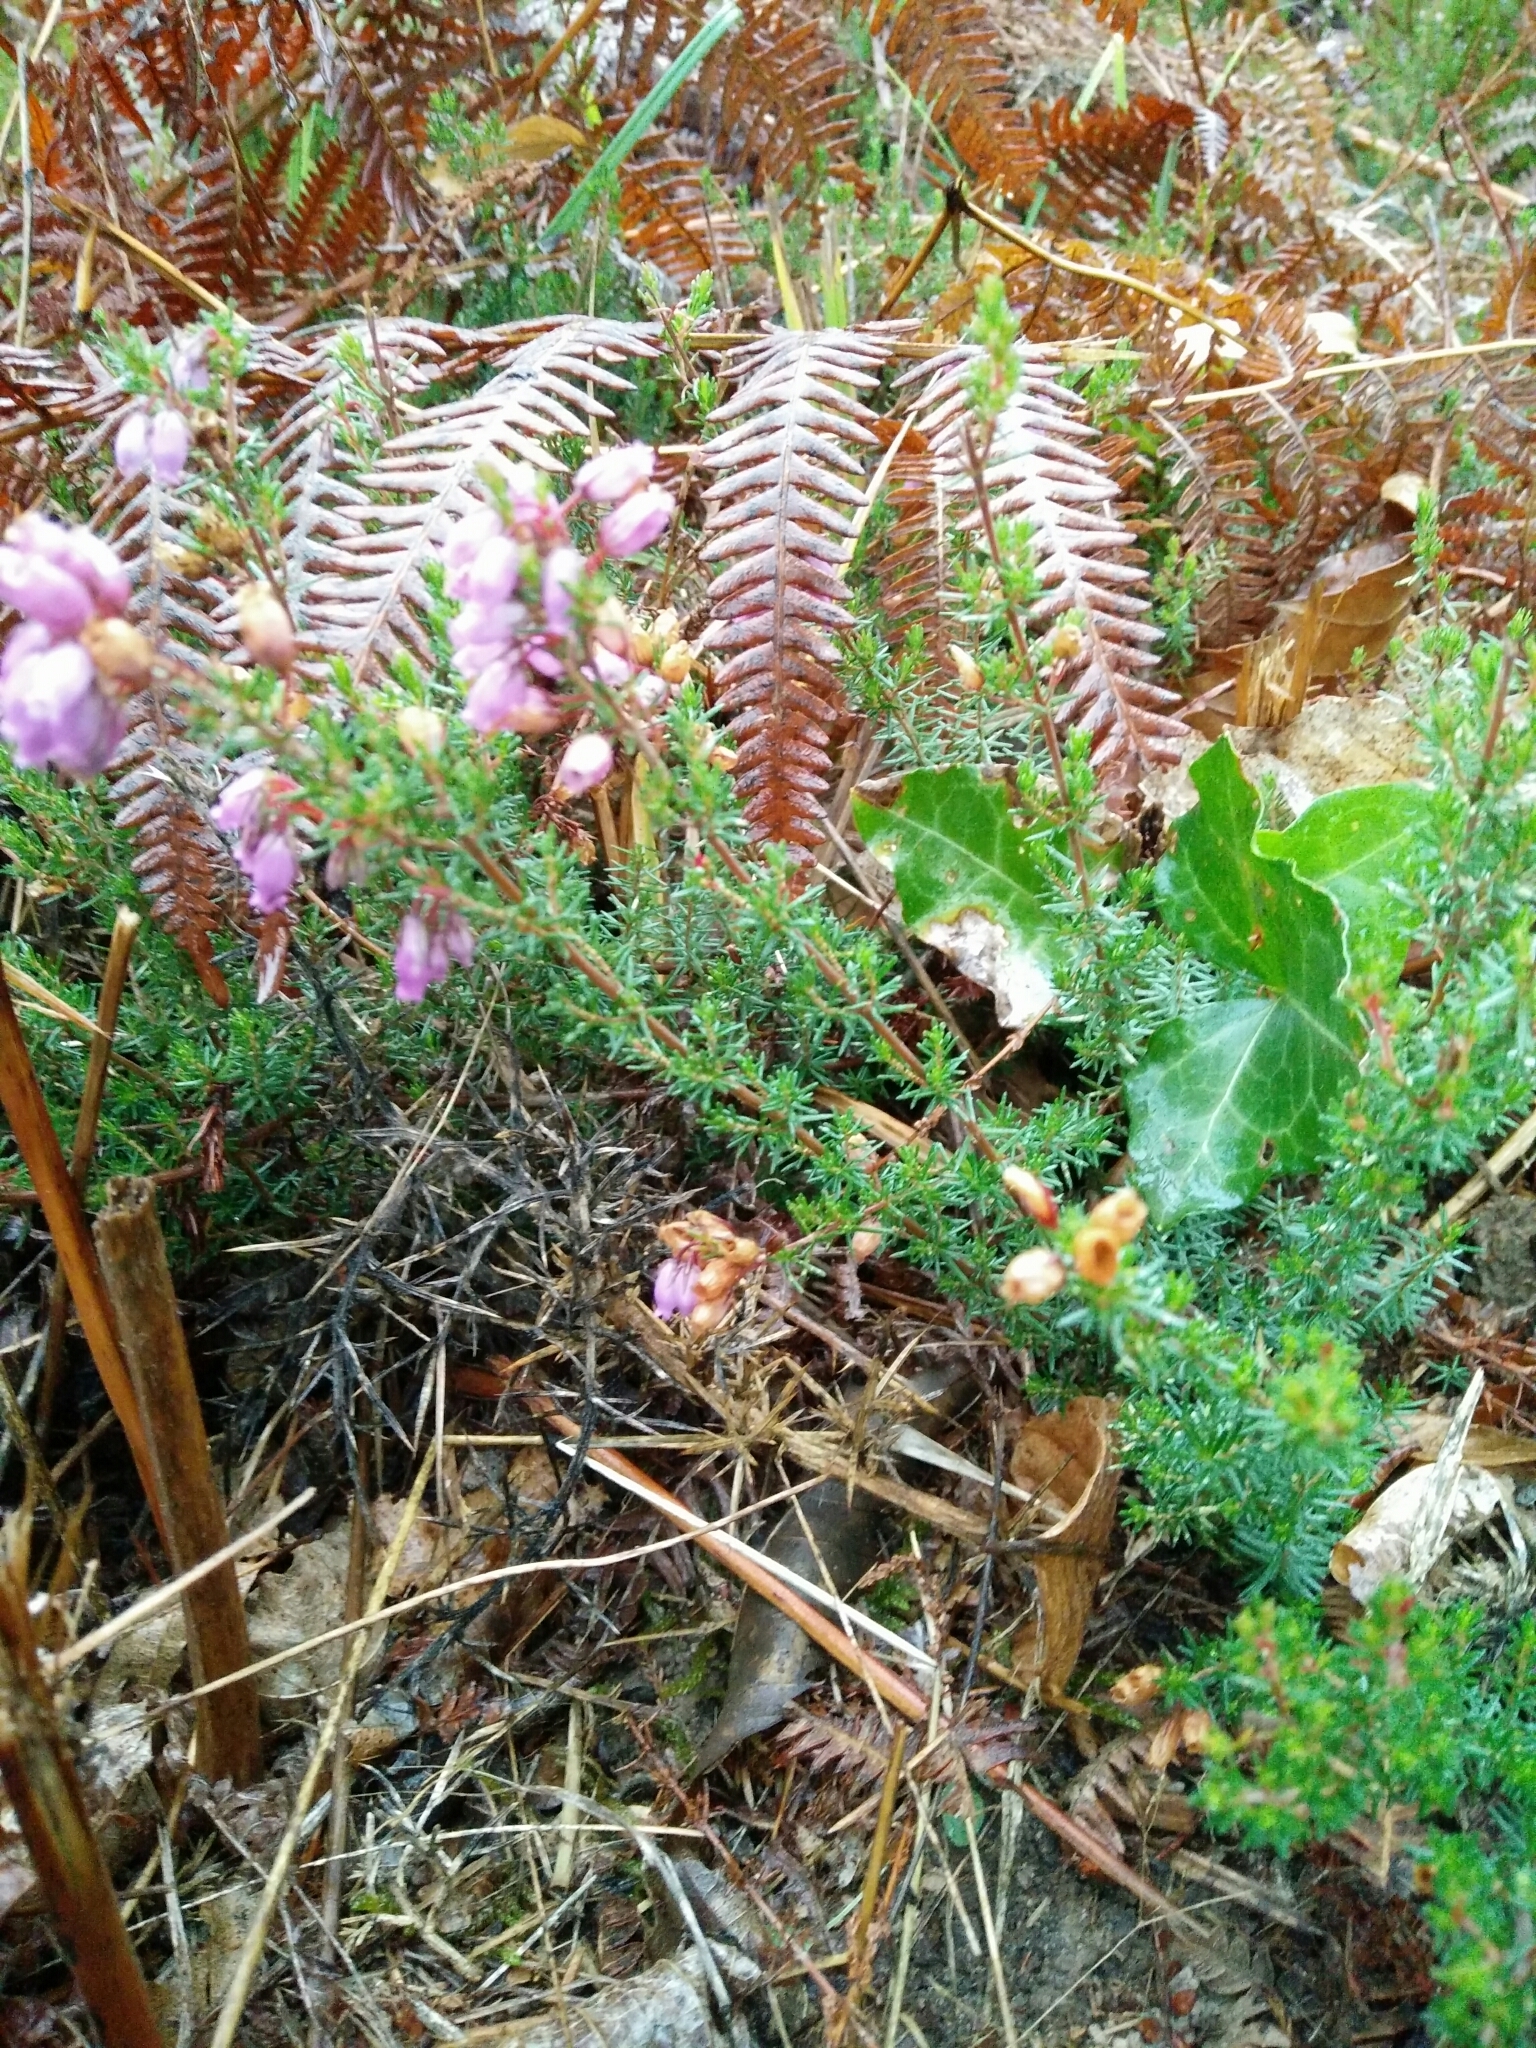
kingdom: Plantae
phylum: Tracheophyta
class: Magnoliopsida
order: Ericales
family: Ericaceae
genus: Erica
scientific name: Erica cinerea
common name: Bell heather
